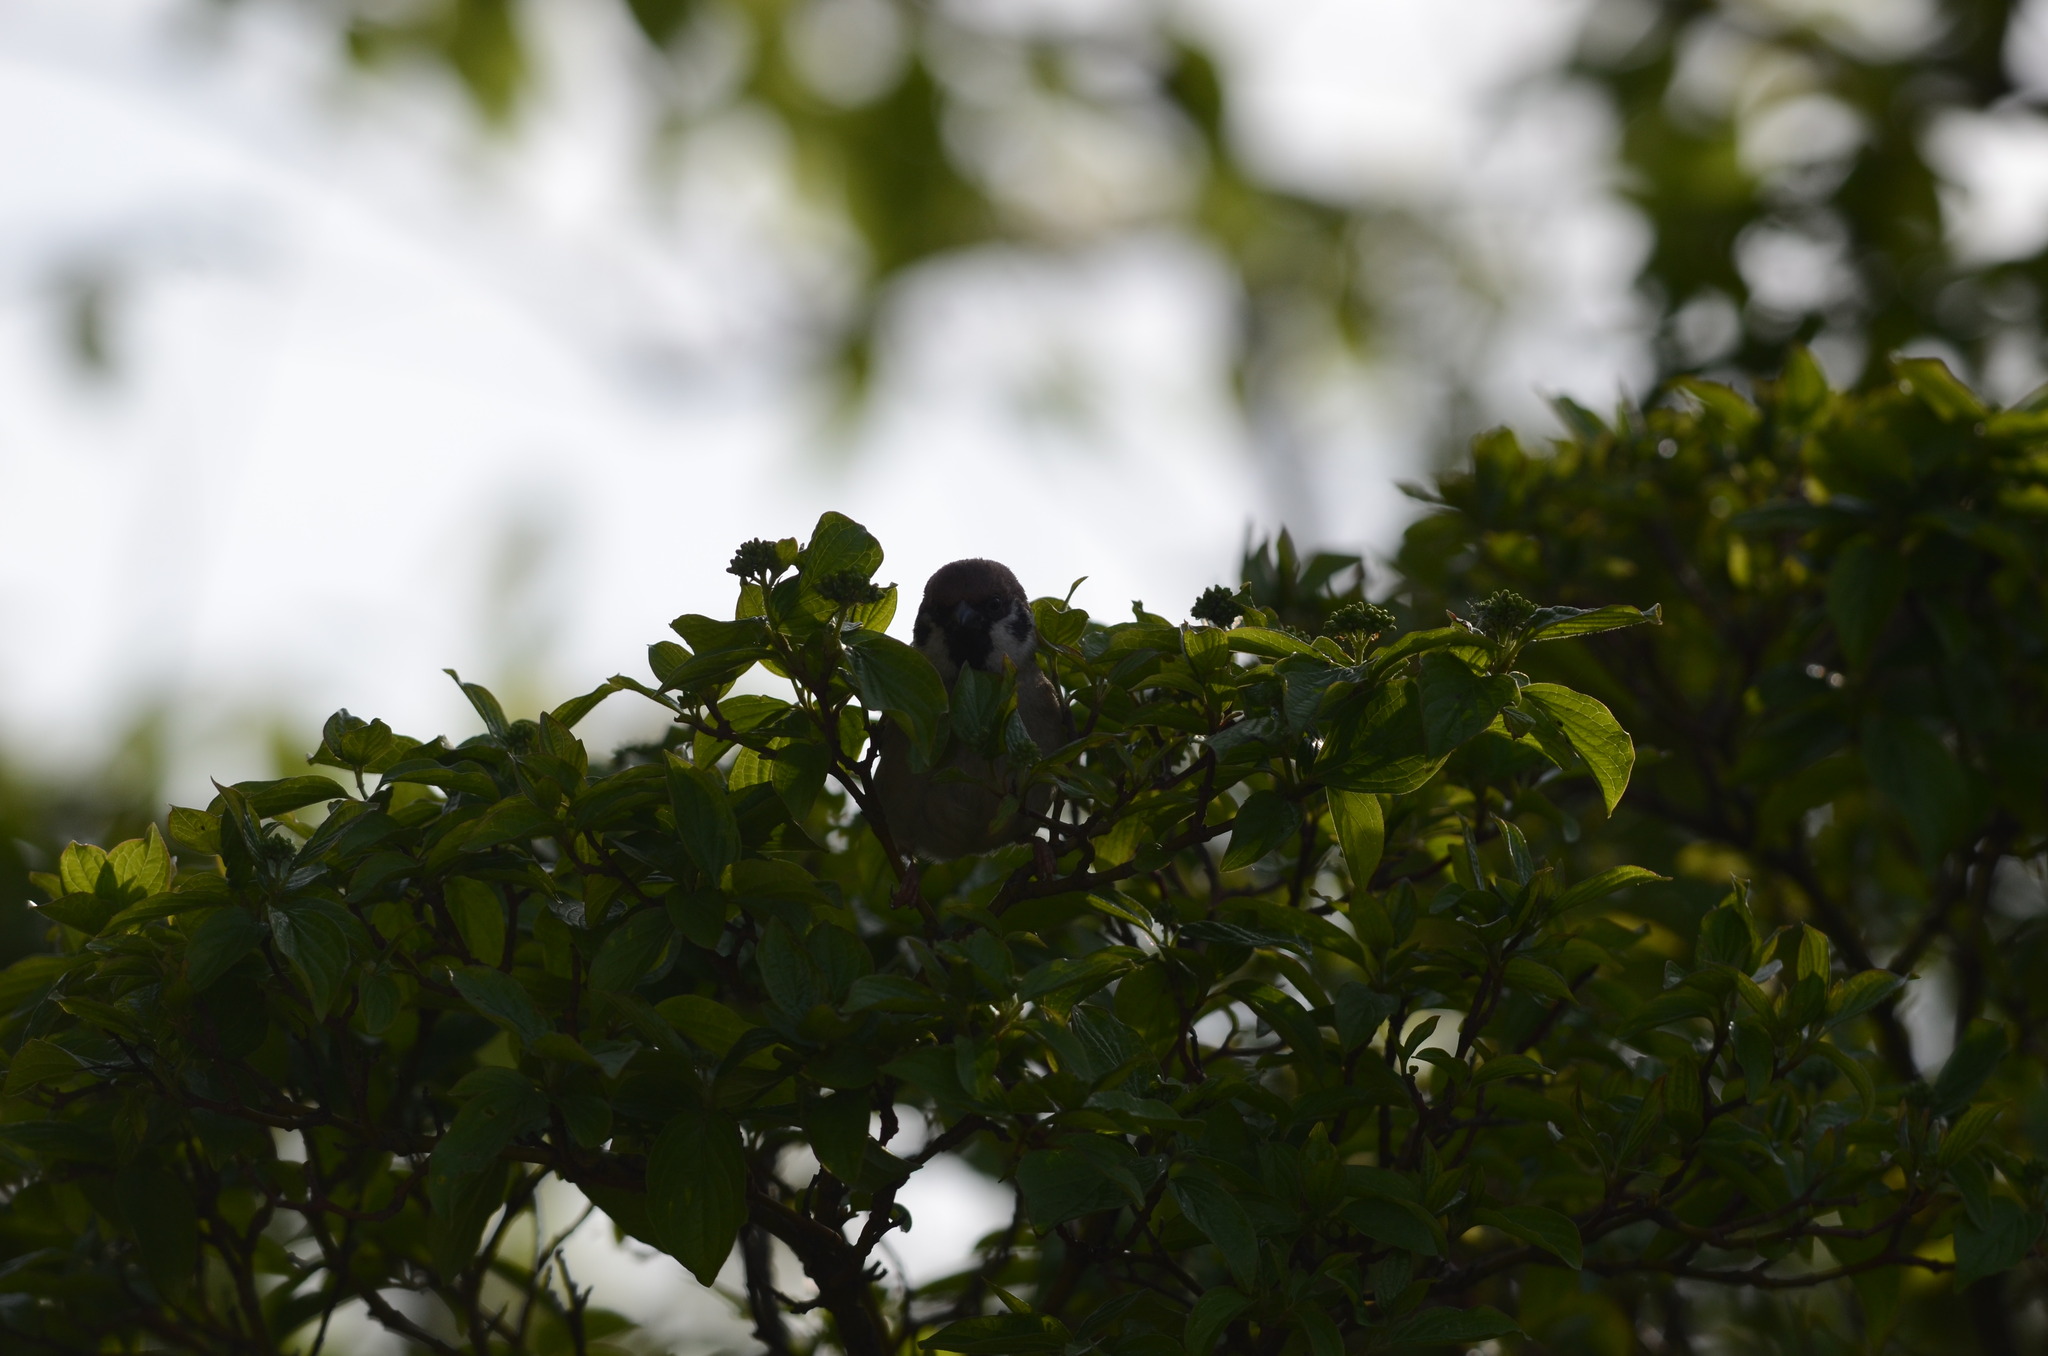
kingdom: Animalia
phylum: Chordata
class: Aves
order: Passeriformes
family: Passeridae
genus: Passer
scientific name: Passer montanus
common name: Eurasian tree sparrow
